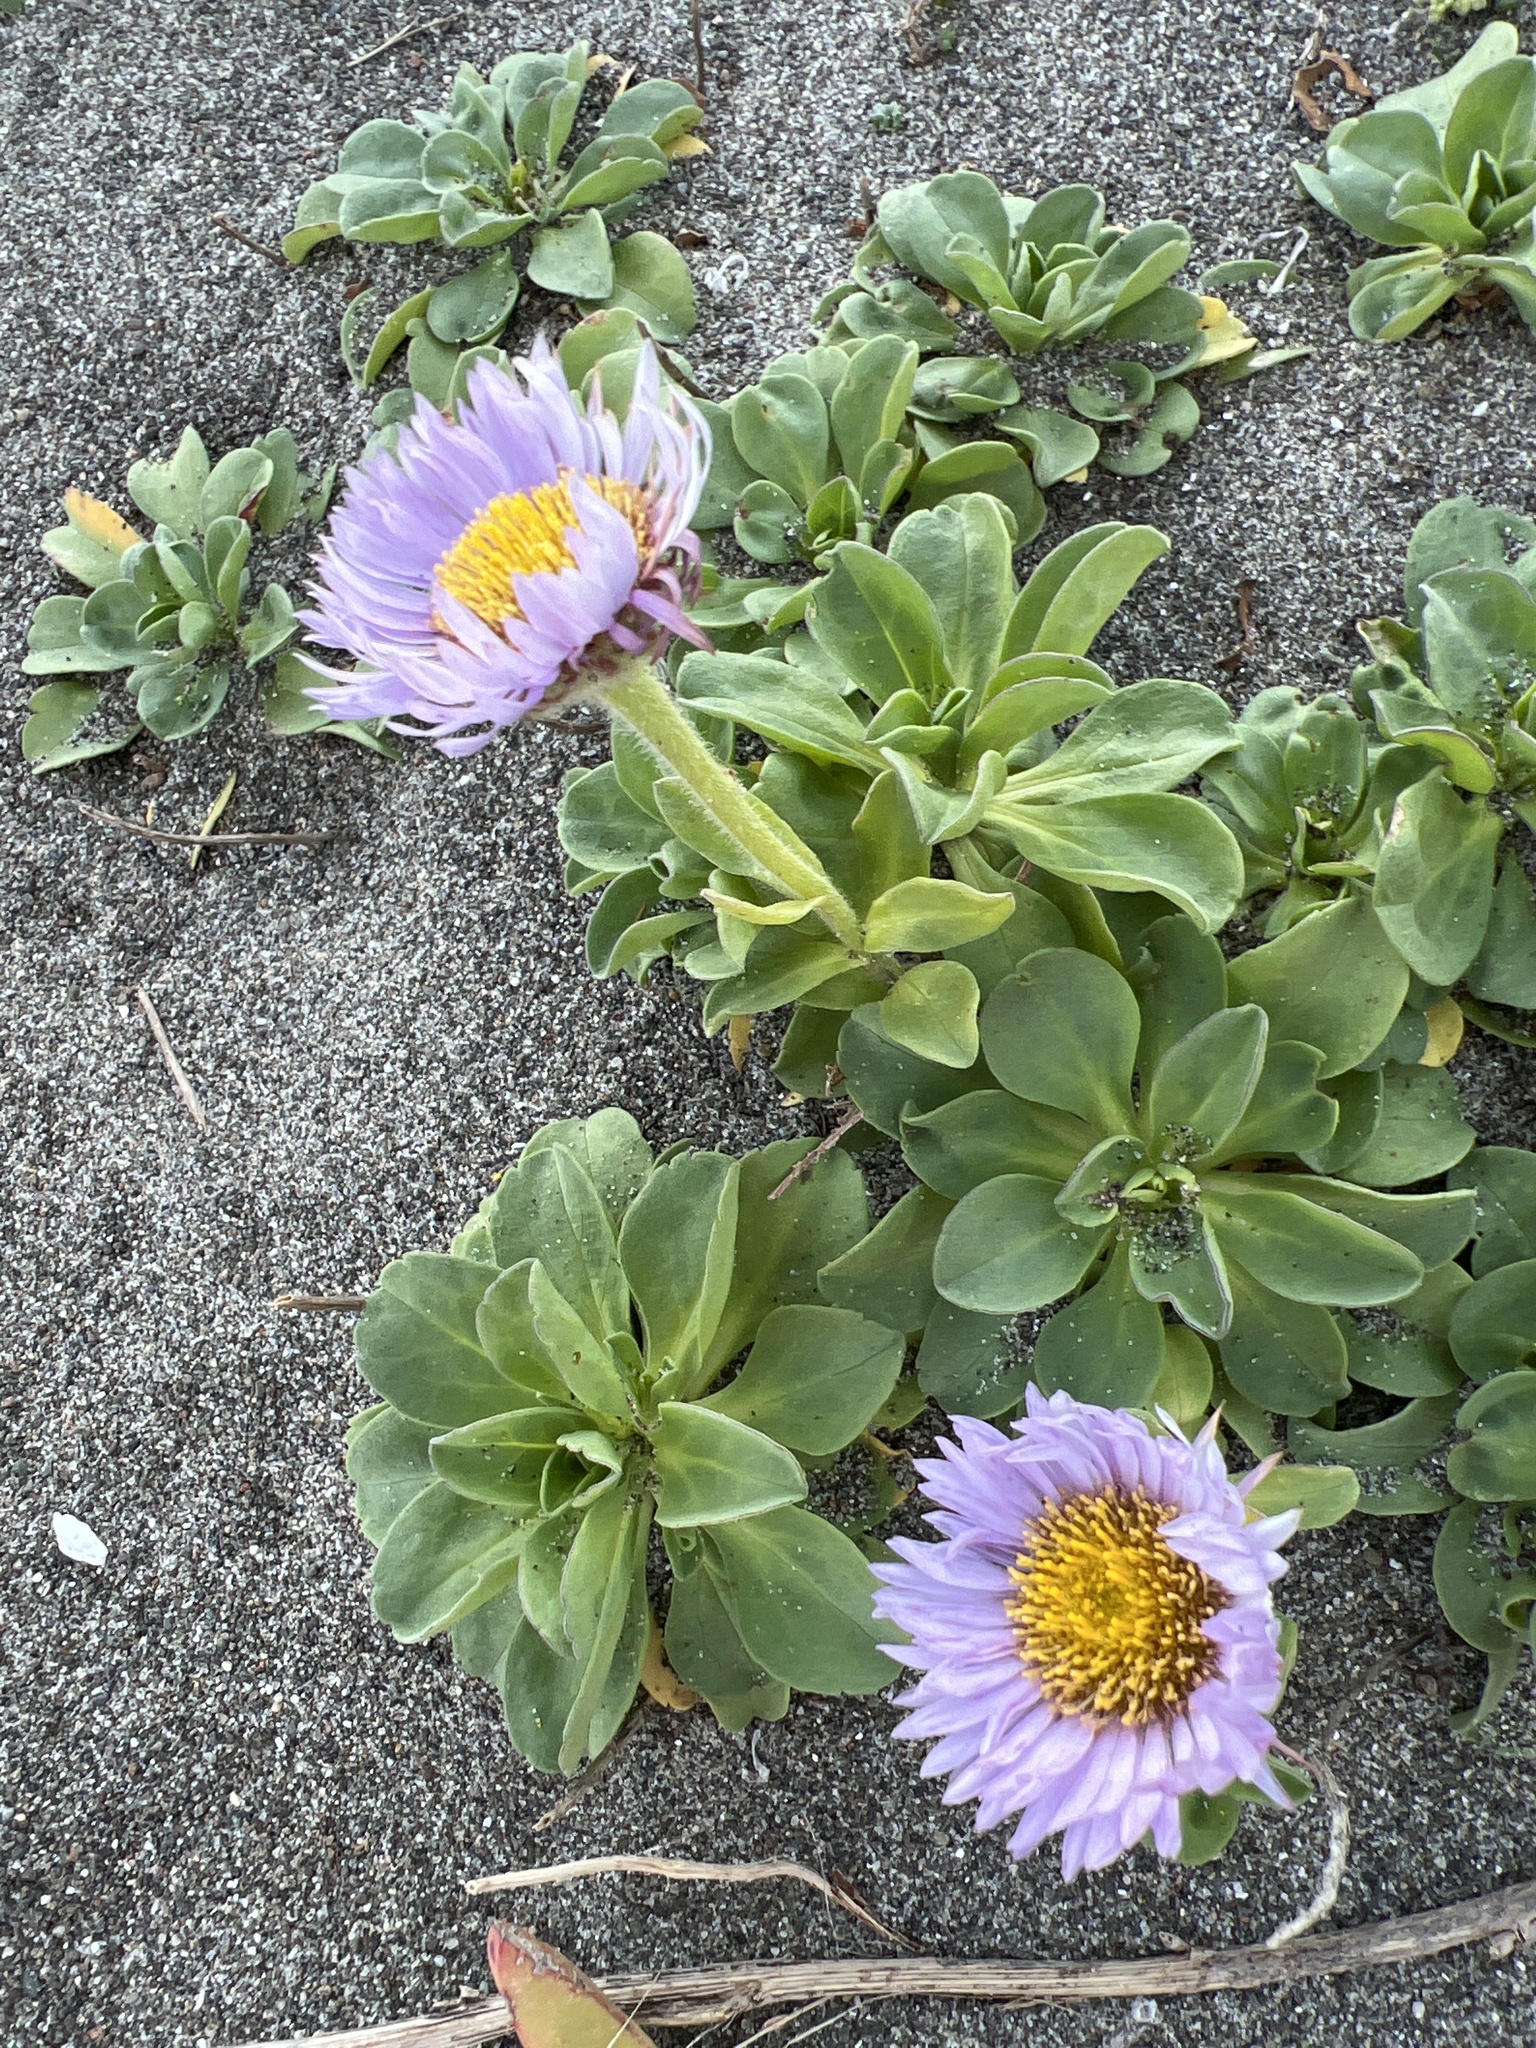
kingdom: Plantae
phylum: Tracheophyta
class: Magnoliopsida
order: Asterales
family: Asteraceae
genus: Erigeron
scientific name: Erigeron glaucus
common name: Seaside daisy
